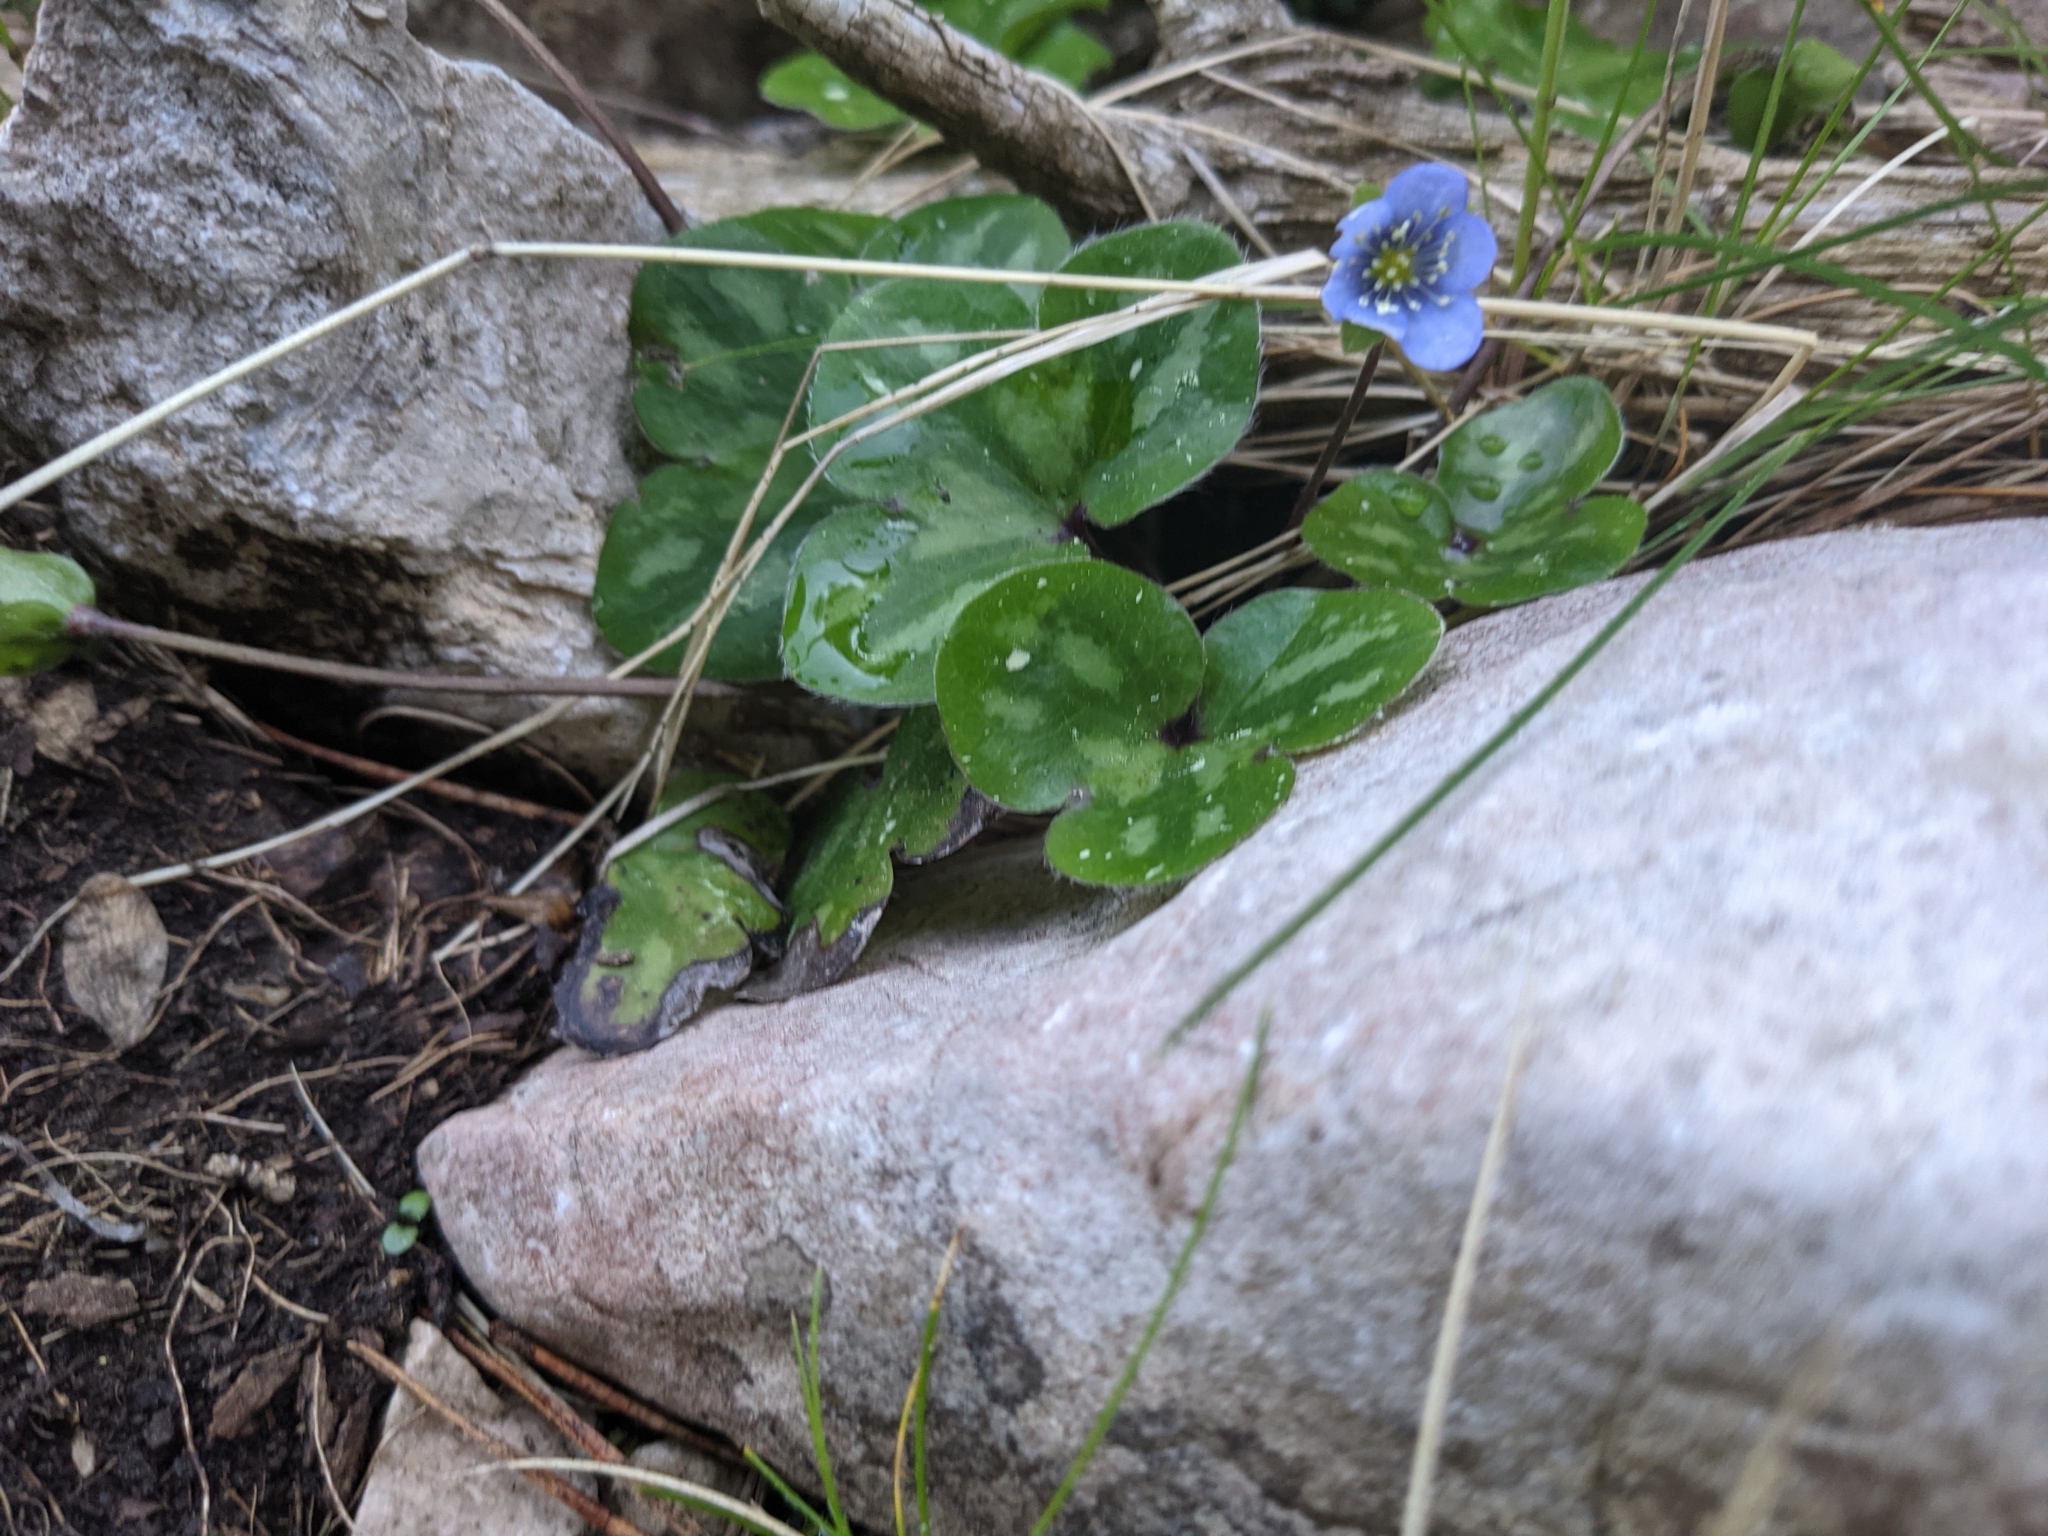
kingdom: Plantae
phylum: Tracheophyta
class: Magnoliopsida
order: Ranunculales
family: Ranunculaceae
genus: Hepatica
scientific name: Hepatica nobilis
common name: Liverleaf
